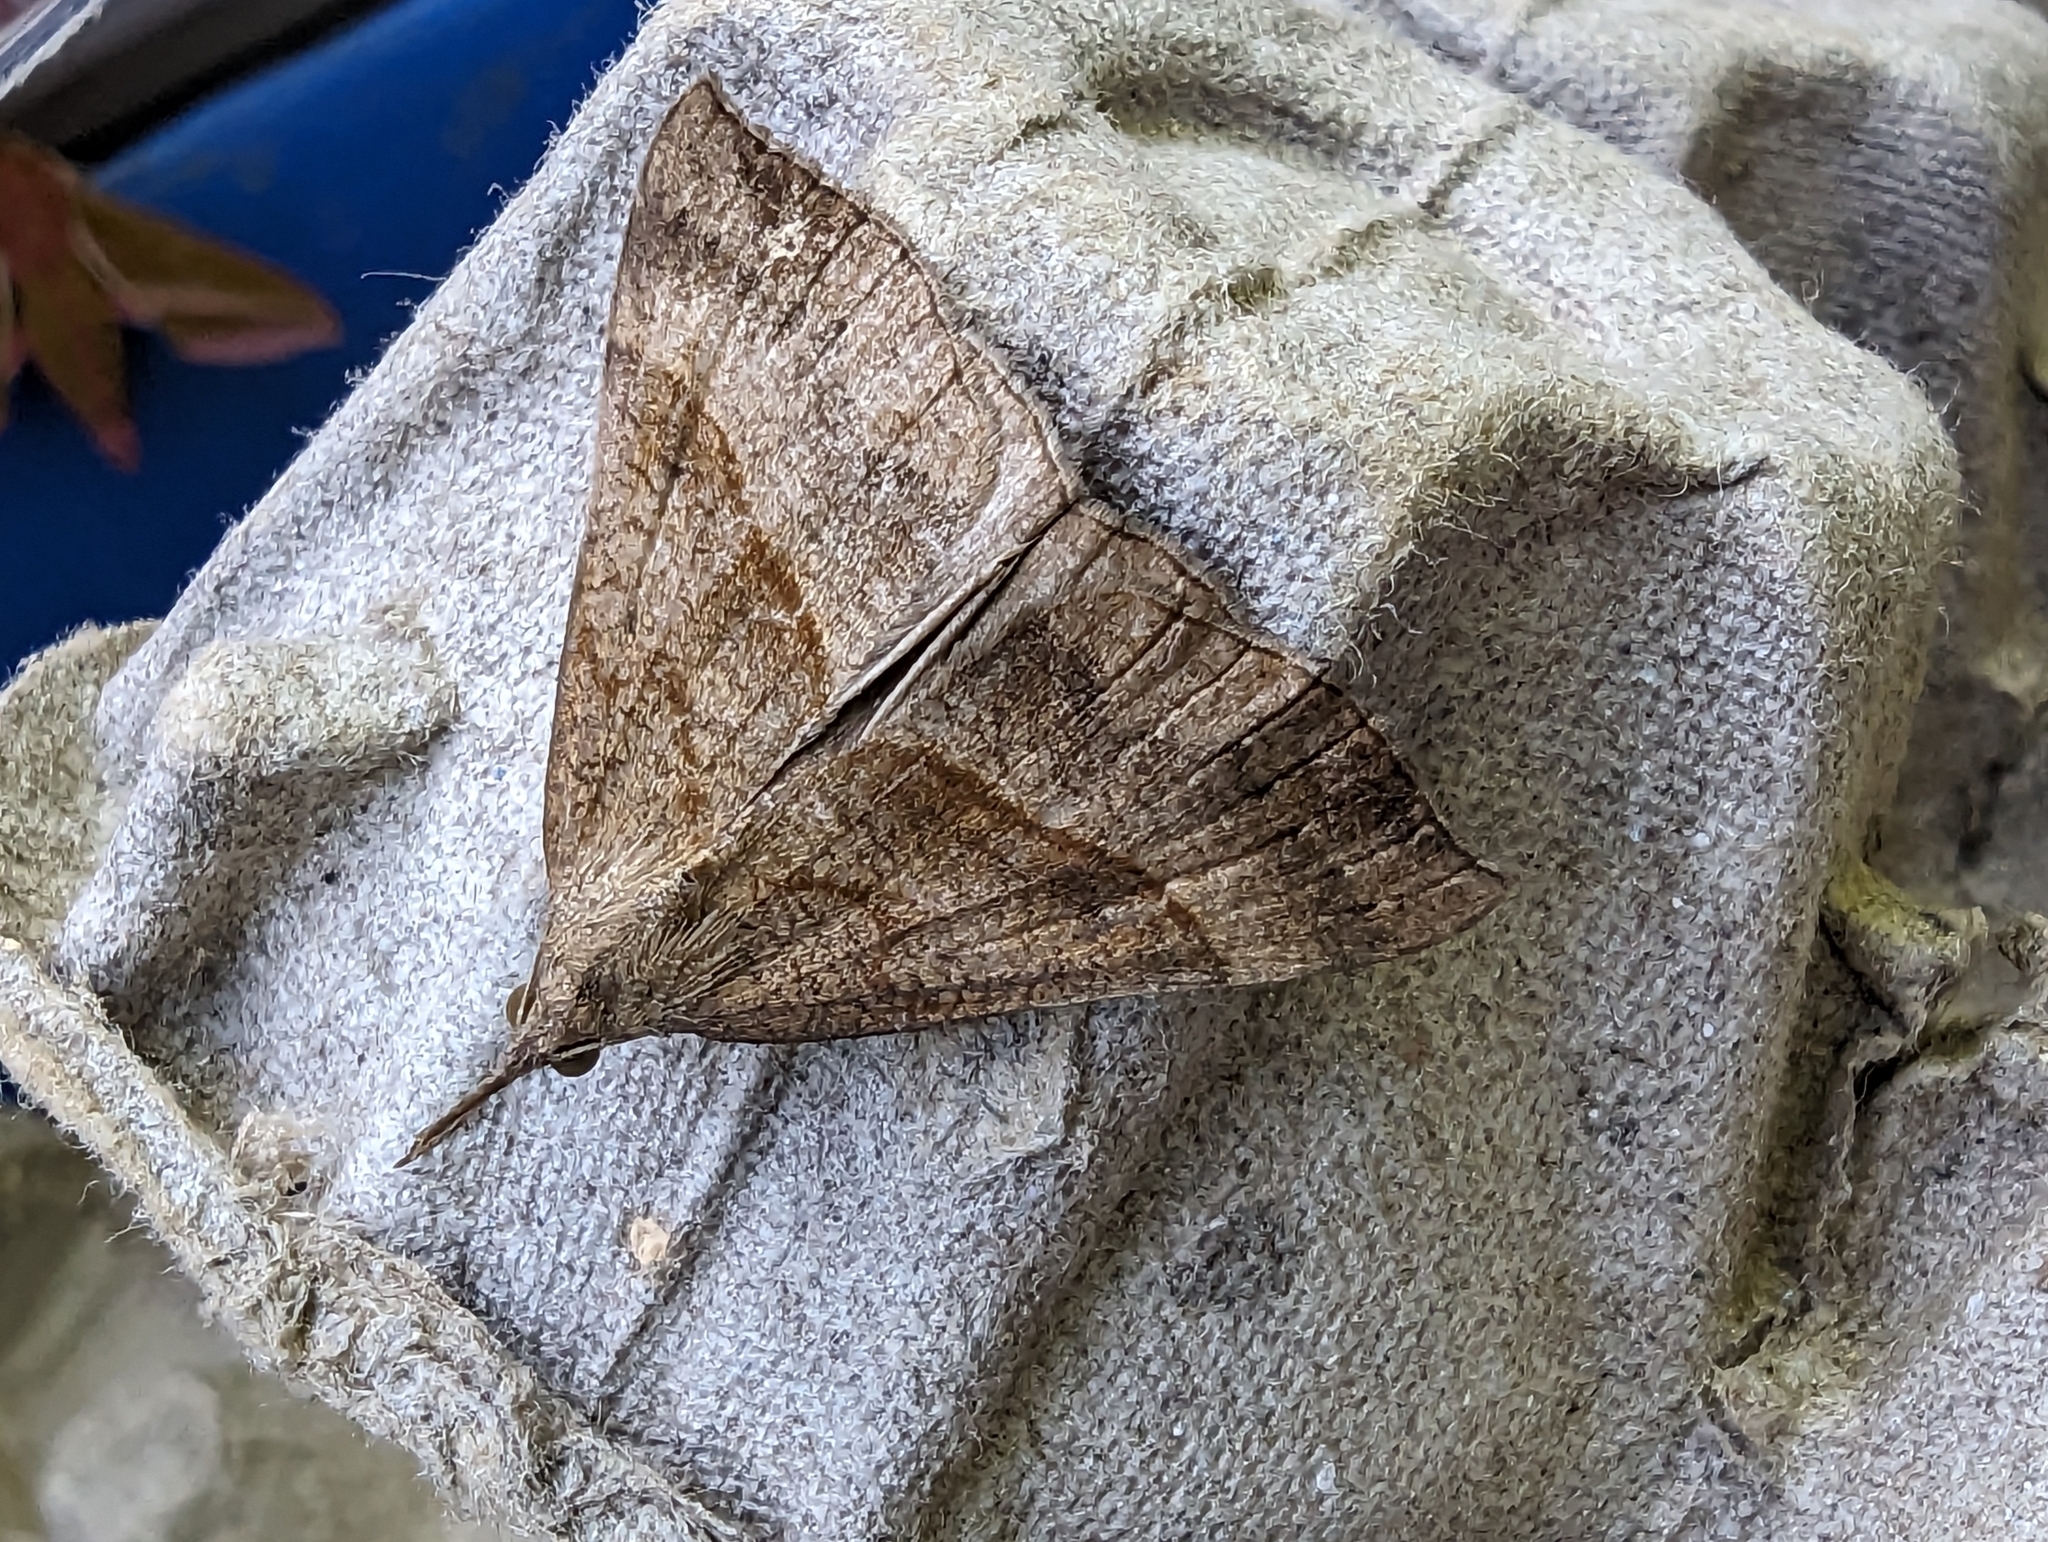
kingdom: Animalia
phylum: Arthropoda
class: Insecta
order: Lepidoptera
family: Erebidae
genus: Hypena
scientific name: Hypena proboscidalis
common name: Snout
